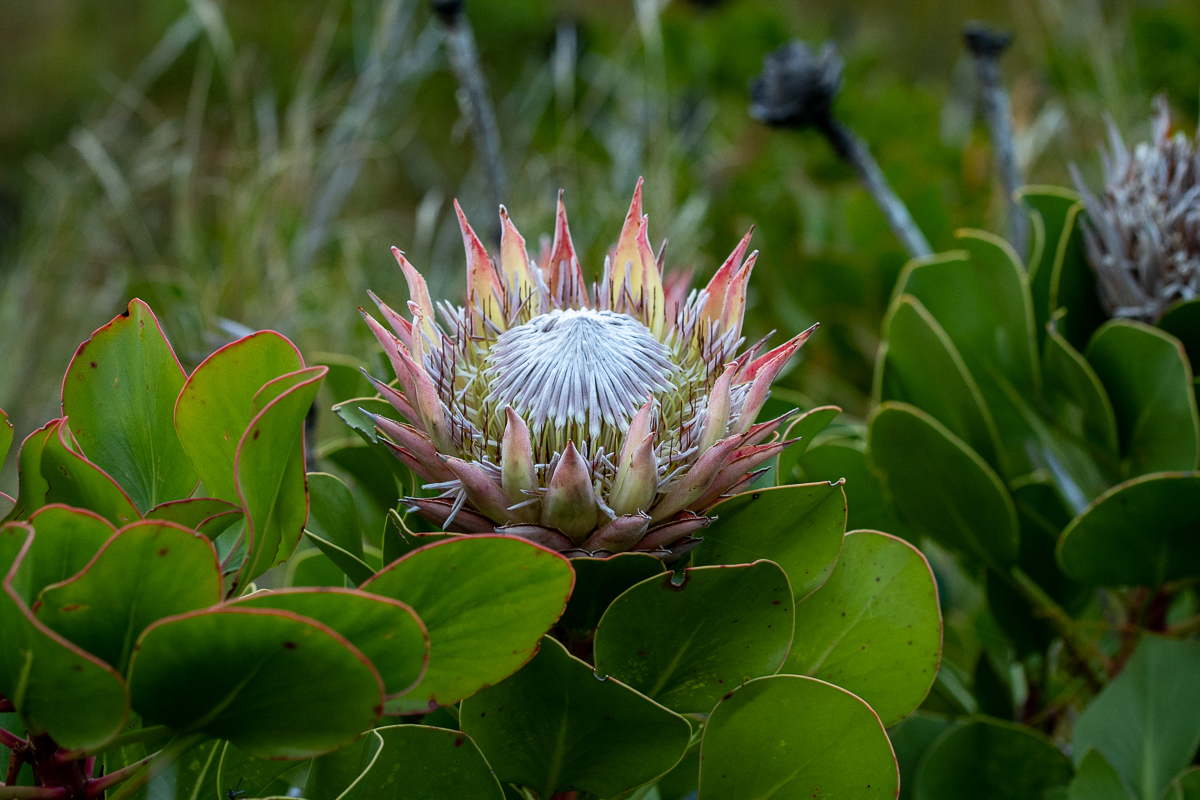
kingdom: Plantae
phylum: Tracheophyta
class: Magnoliopsida
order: Proteales
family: Proteaceae
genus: Protea
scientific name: Protea cynaroides
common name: King protea
